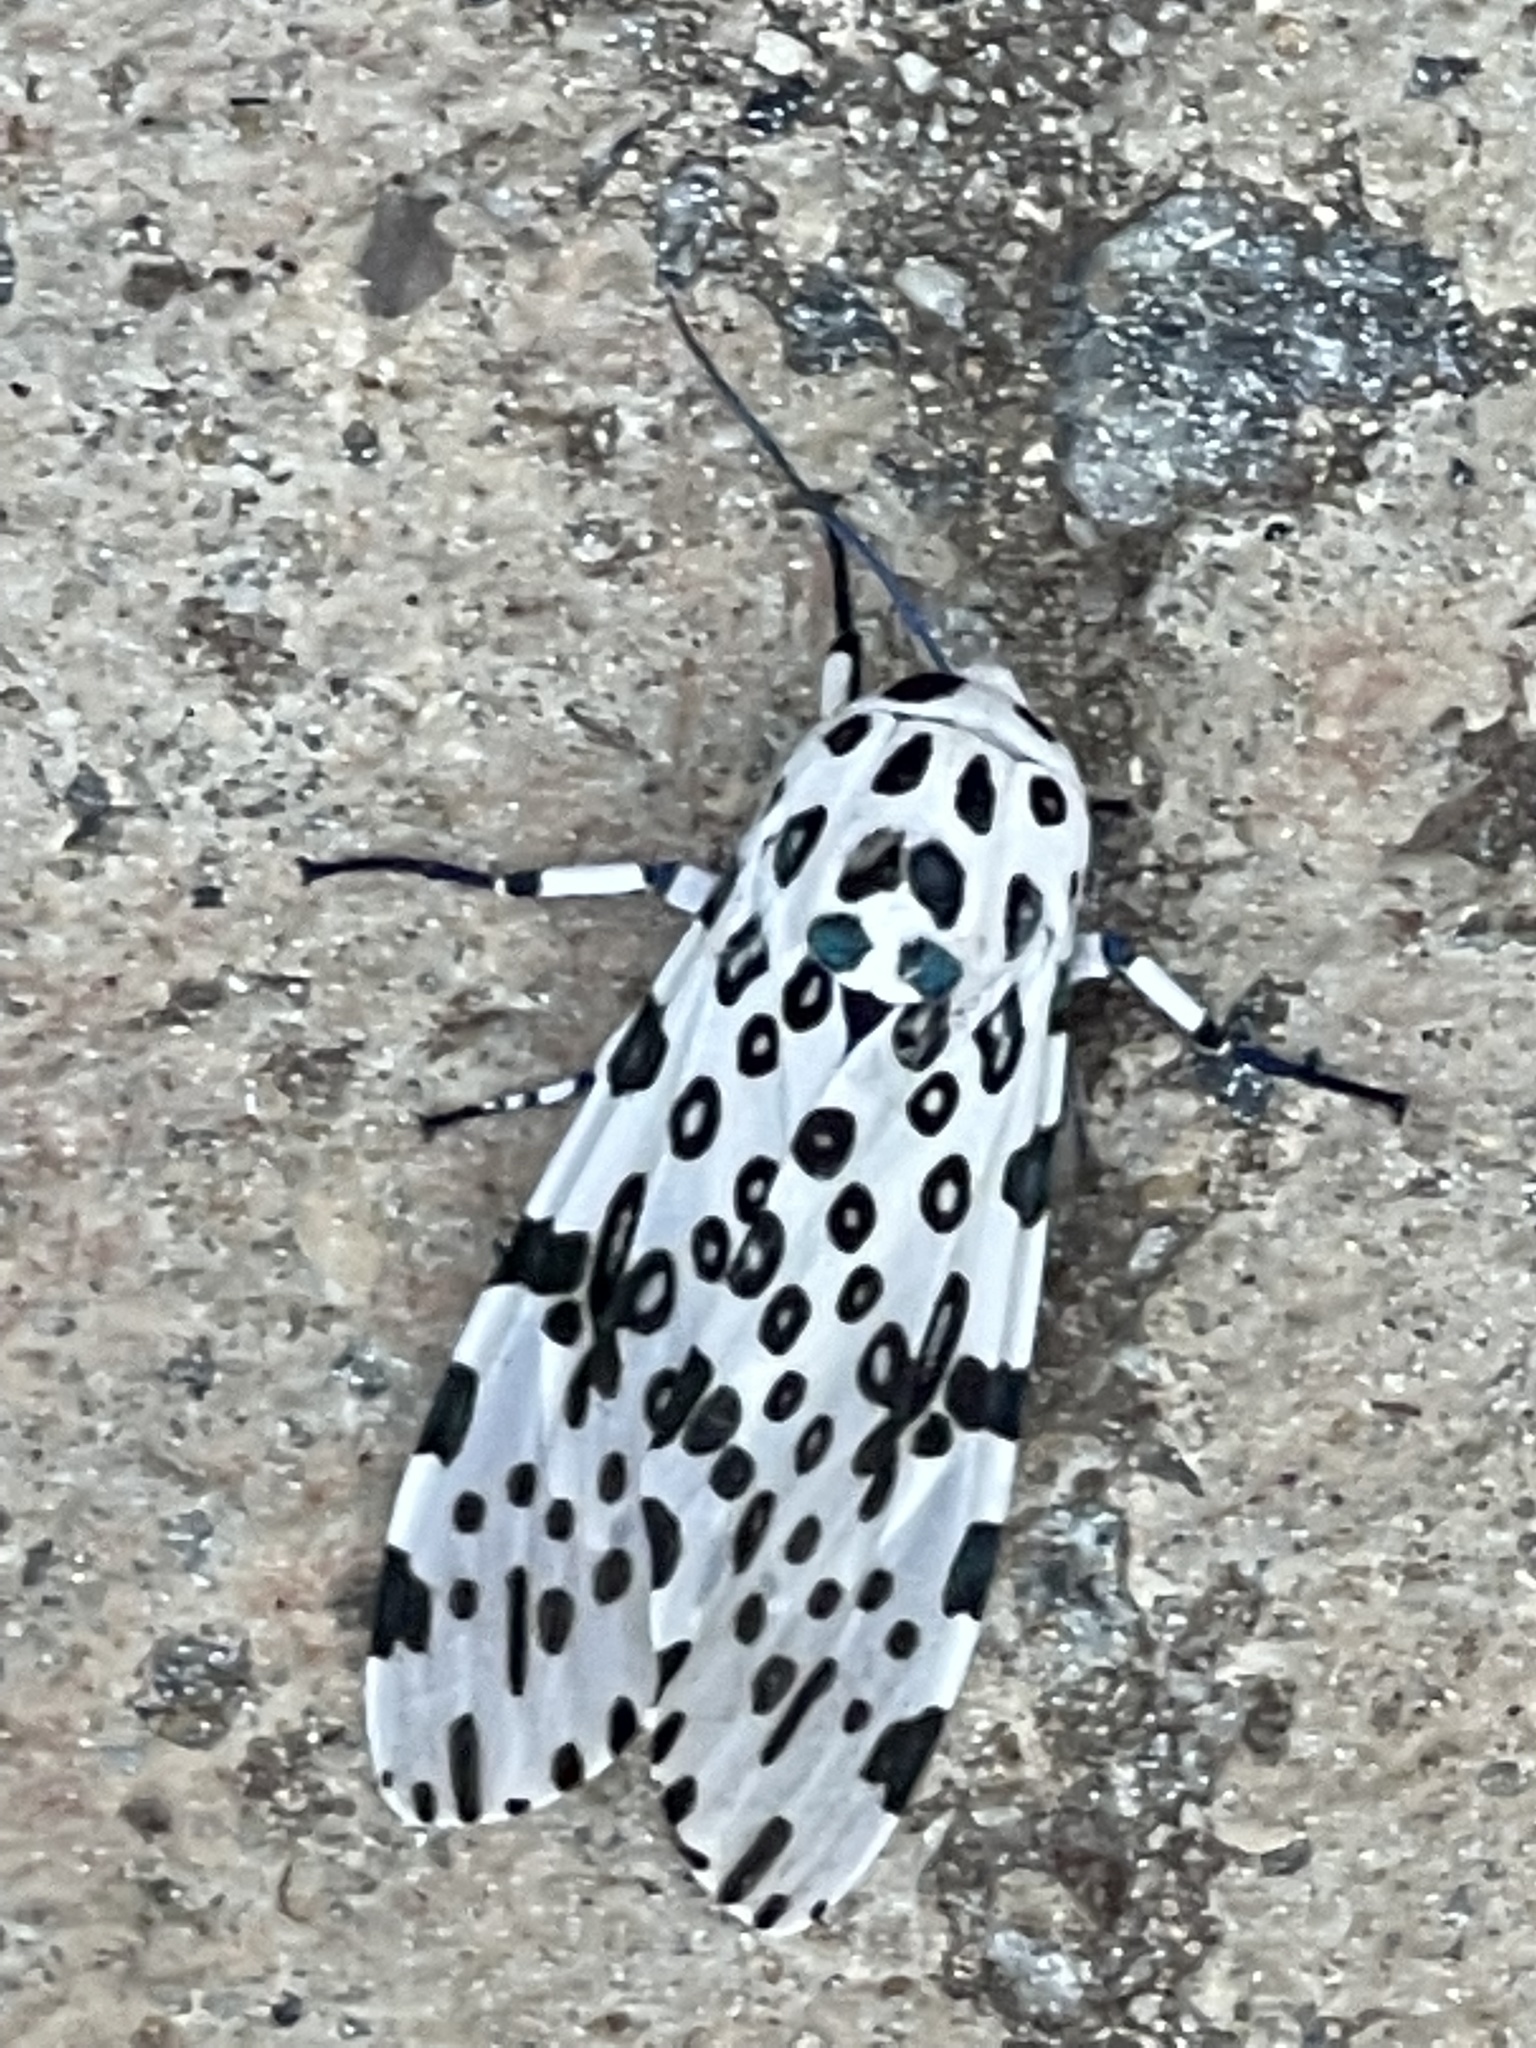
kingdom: Animalia
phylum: Arthropoda
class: Insecta
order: Lepidoptera
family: Erebidae
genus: Hypercompe
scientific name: Hypercompe scribonia
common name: Giant leopard moth
